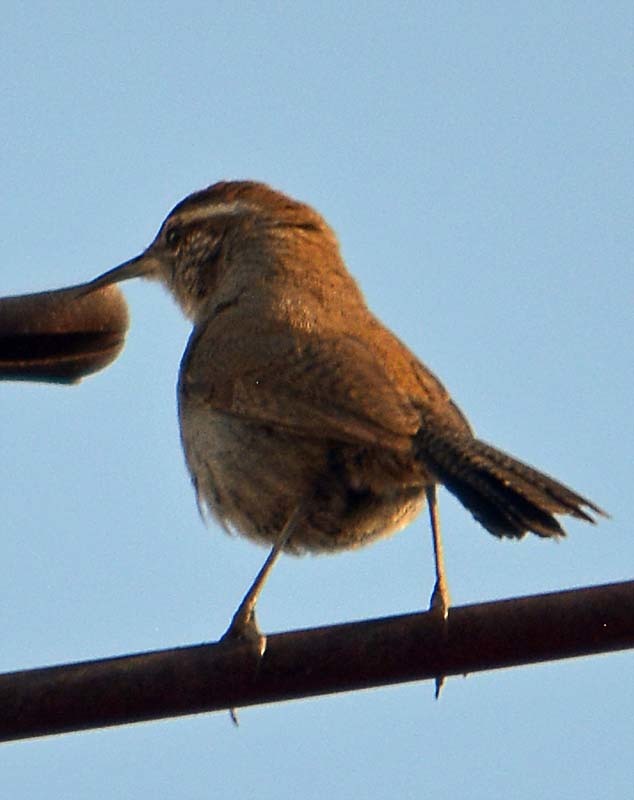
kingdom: Animalia
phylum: Chordata
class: Aves
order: Passeriformes
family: Troglodytidae
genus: Thryomanes
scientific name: Thryomanes bewickii
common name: Bewick's wren
